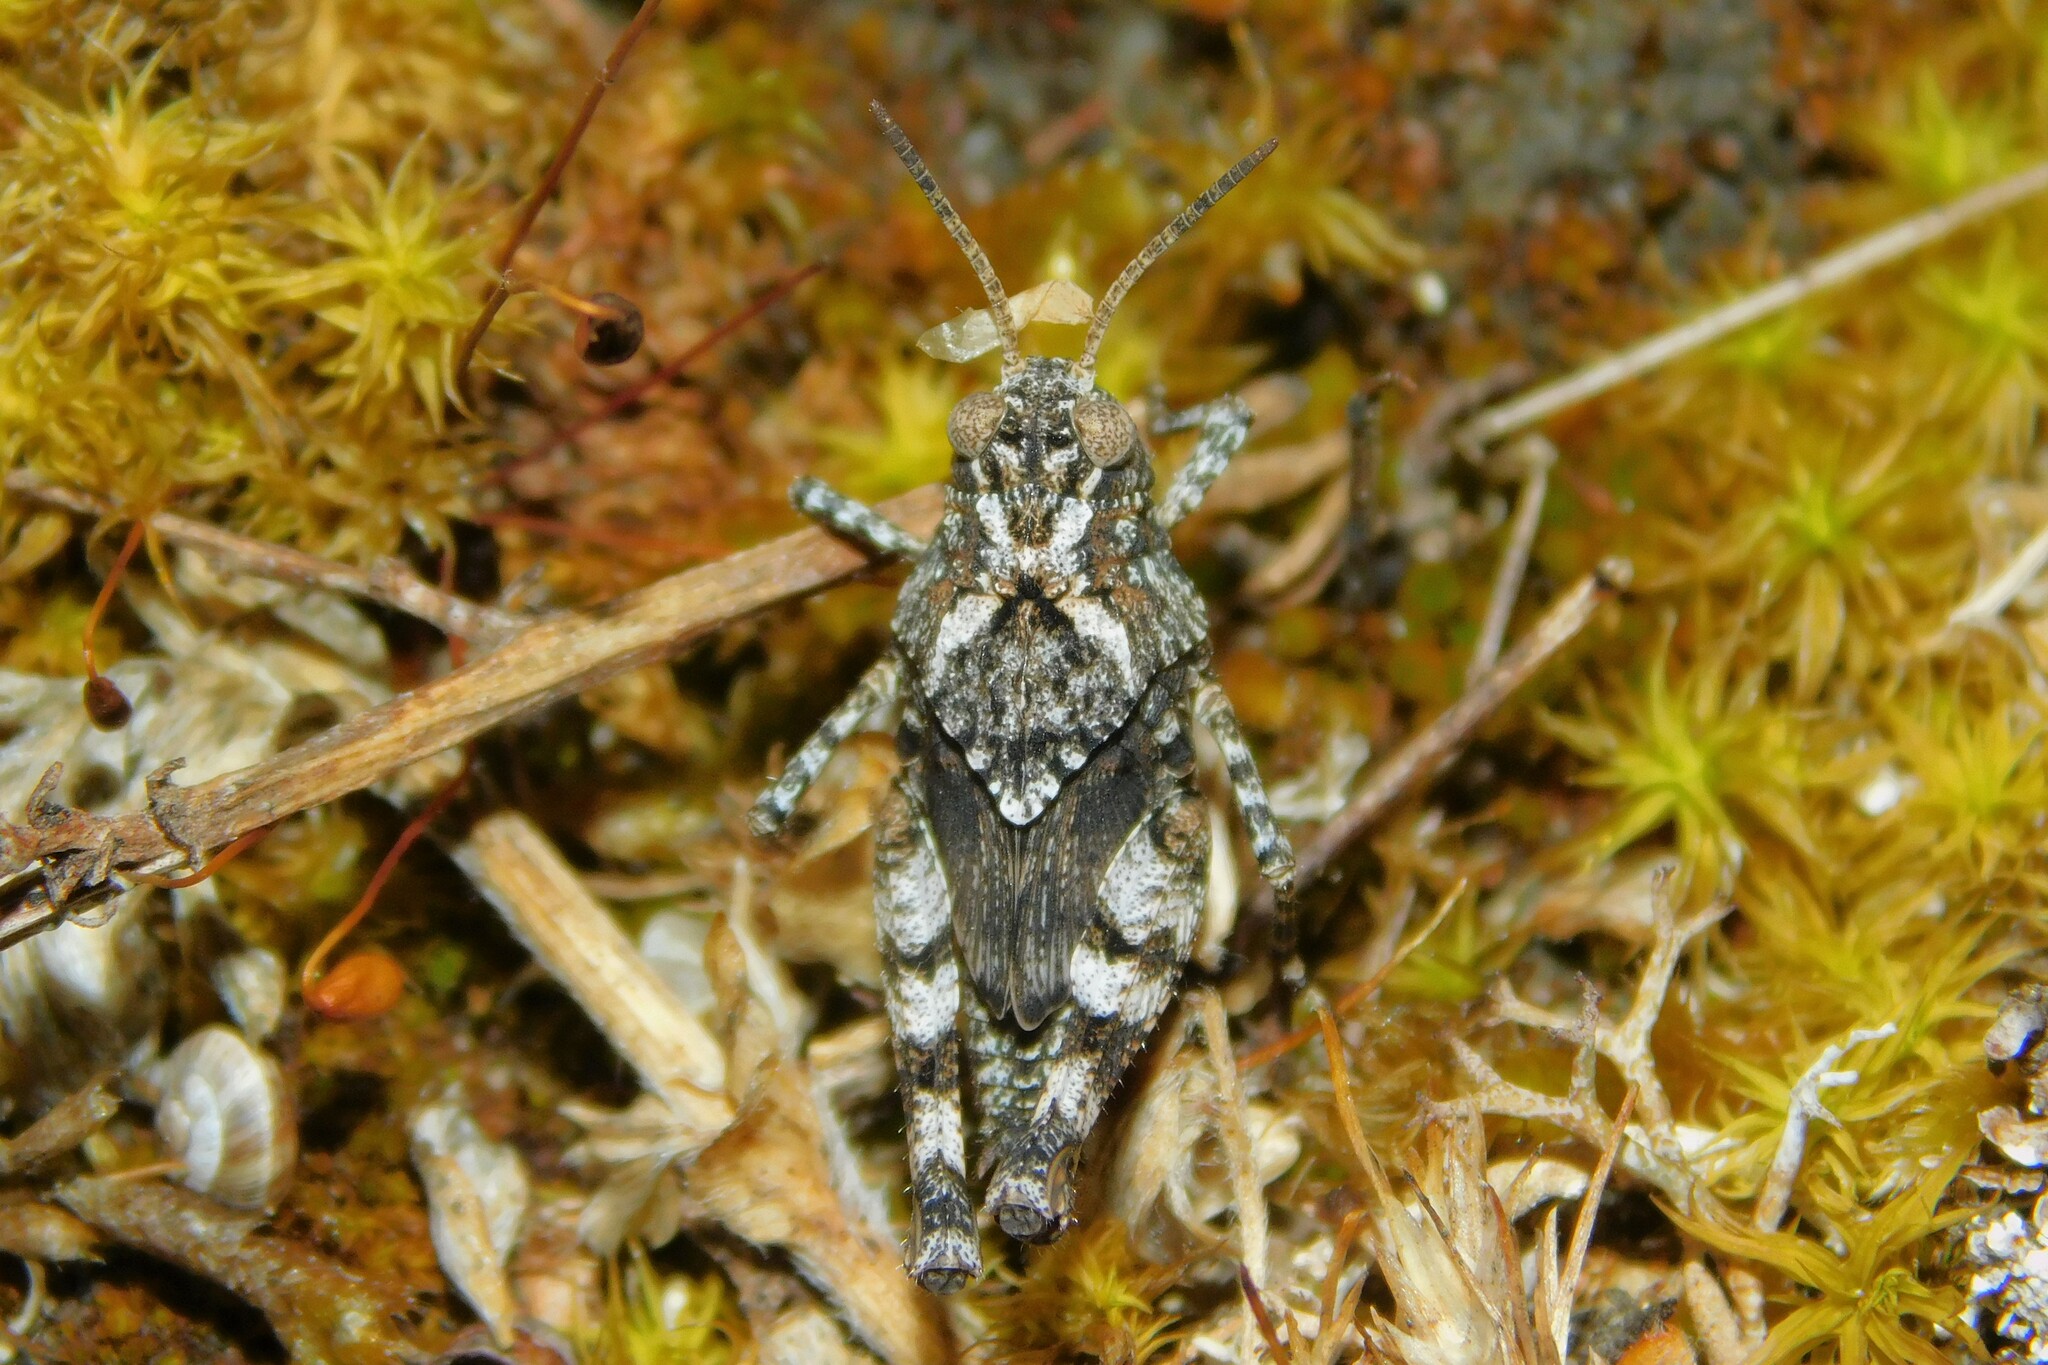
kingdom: Animalia
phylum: Arthropoda
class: Insecta
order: Orthoptera
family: Acrididae
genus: Oedipoda
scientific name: Oedipoda caerulescens
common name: Blue-winged grasshopper
